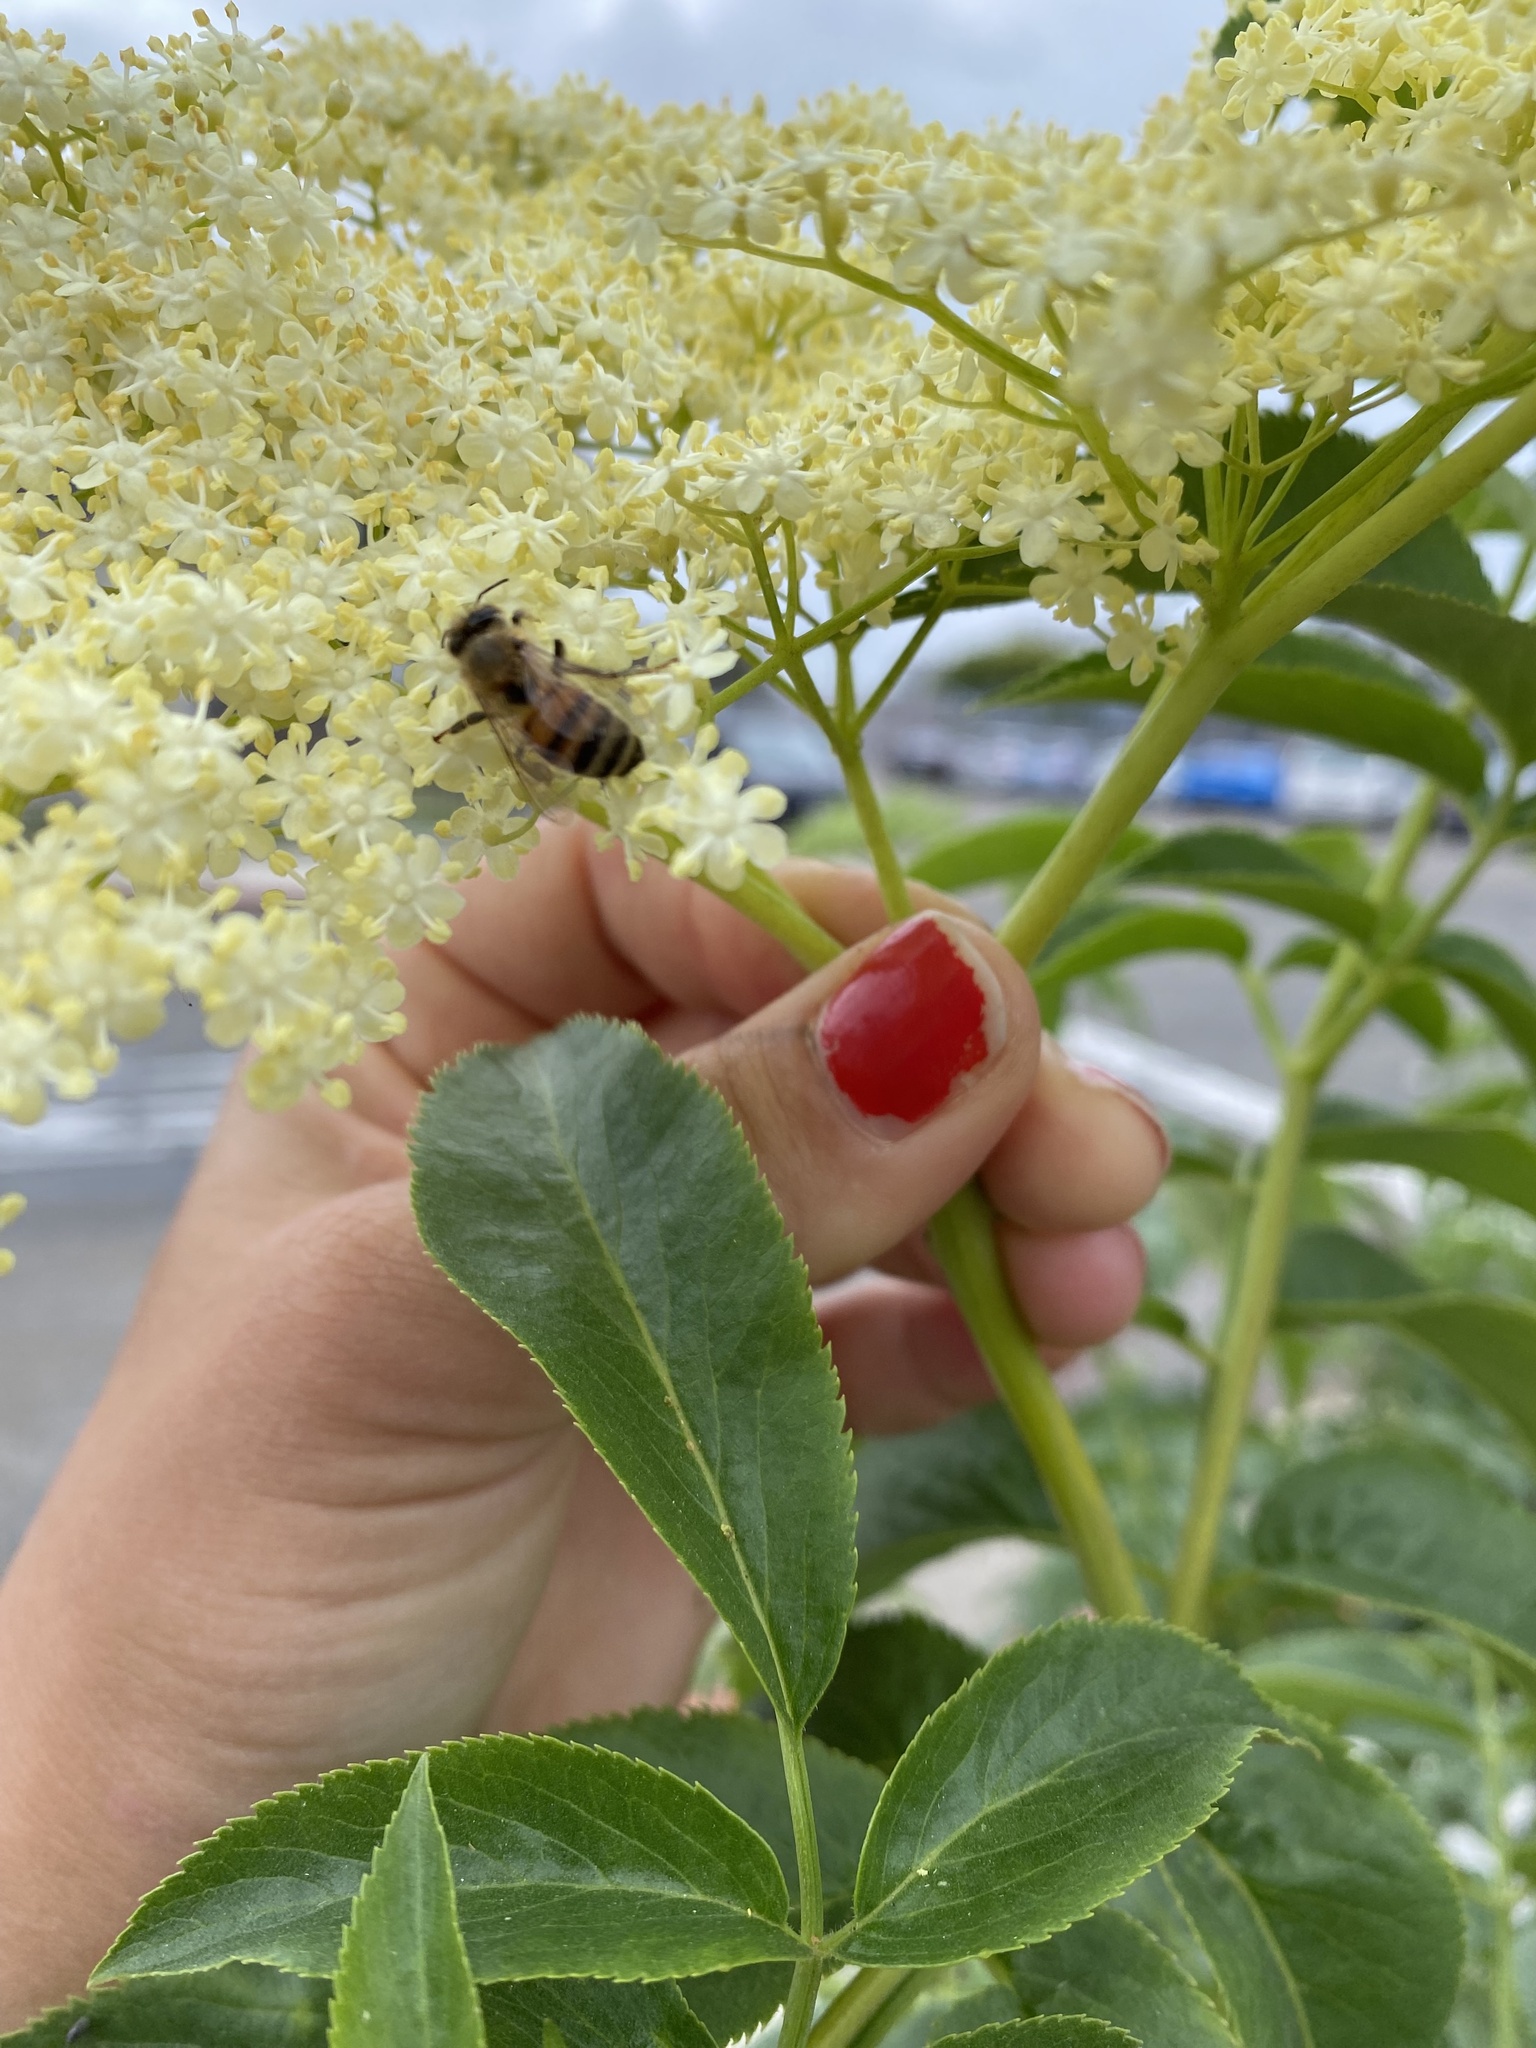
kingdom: Animalia
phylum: Arthropoda
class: Insecta
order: Hymenoptera
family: Apidae
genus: Apis
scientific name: Apis mellifera
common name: Honey bee
